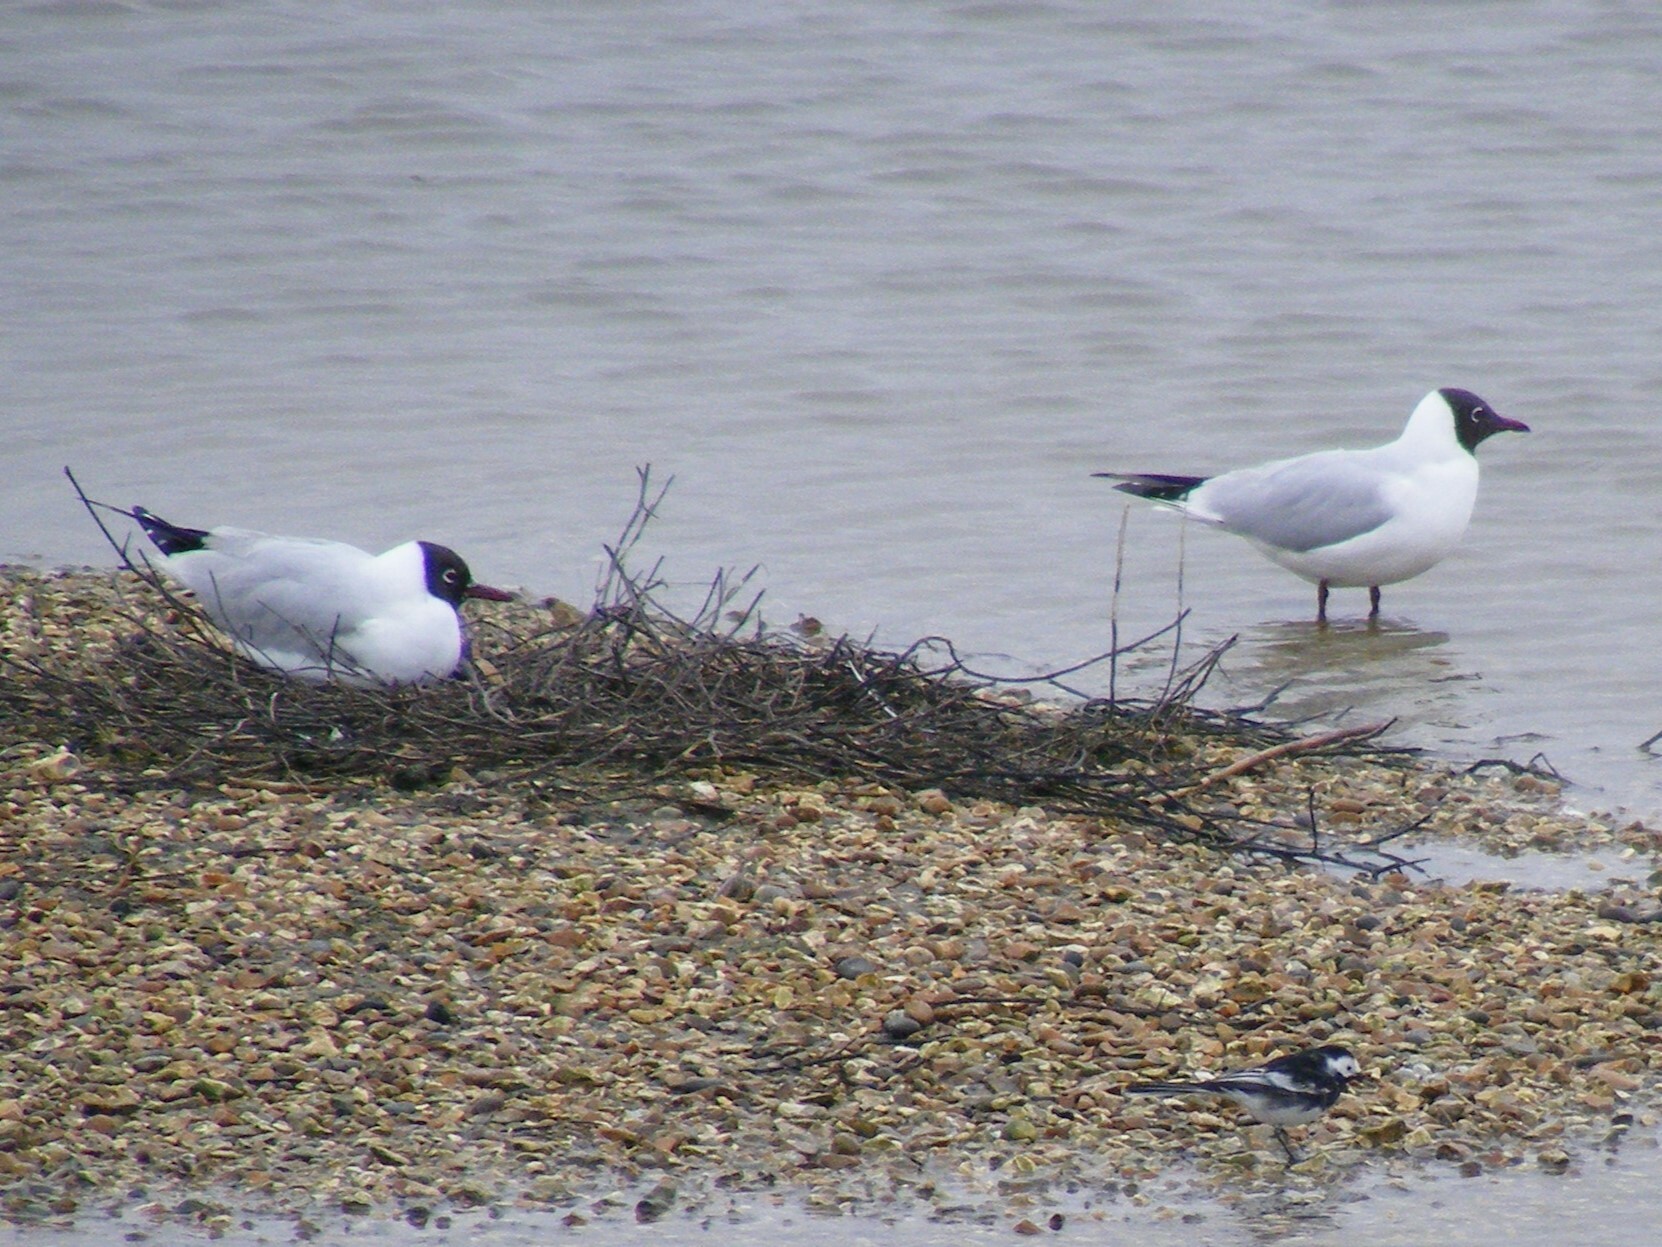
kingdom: Animalia
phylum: Chordata
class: Aves
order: Charadriiformes
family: Laridae
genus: Chroicocephalus
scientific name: Chroicocephalus ridibundus
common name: Black-headed gull
